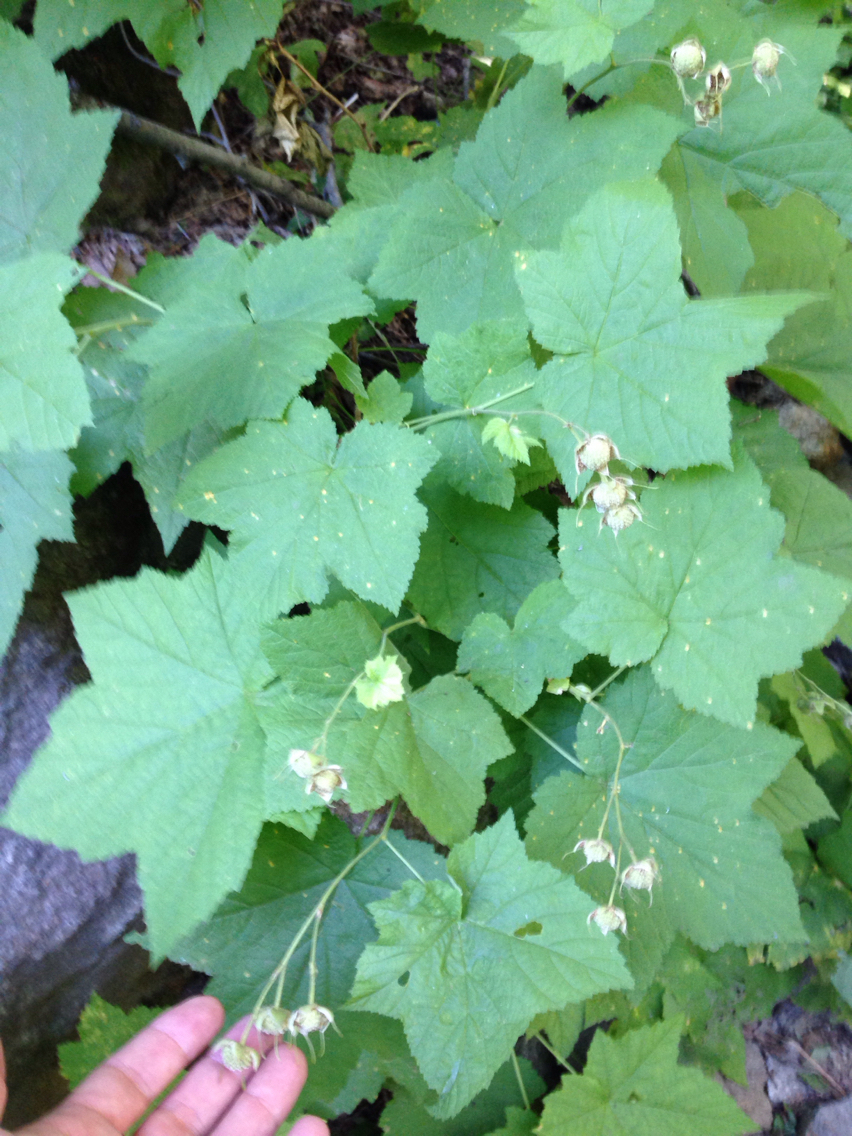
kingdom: Plantae
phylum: Tracheophyta
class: Magnoliopsida
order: Rosales
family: Rosaceae
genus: Rubus
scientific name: Rubus parviflorus
